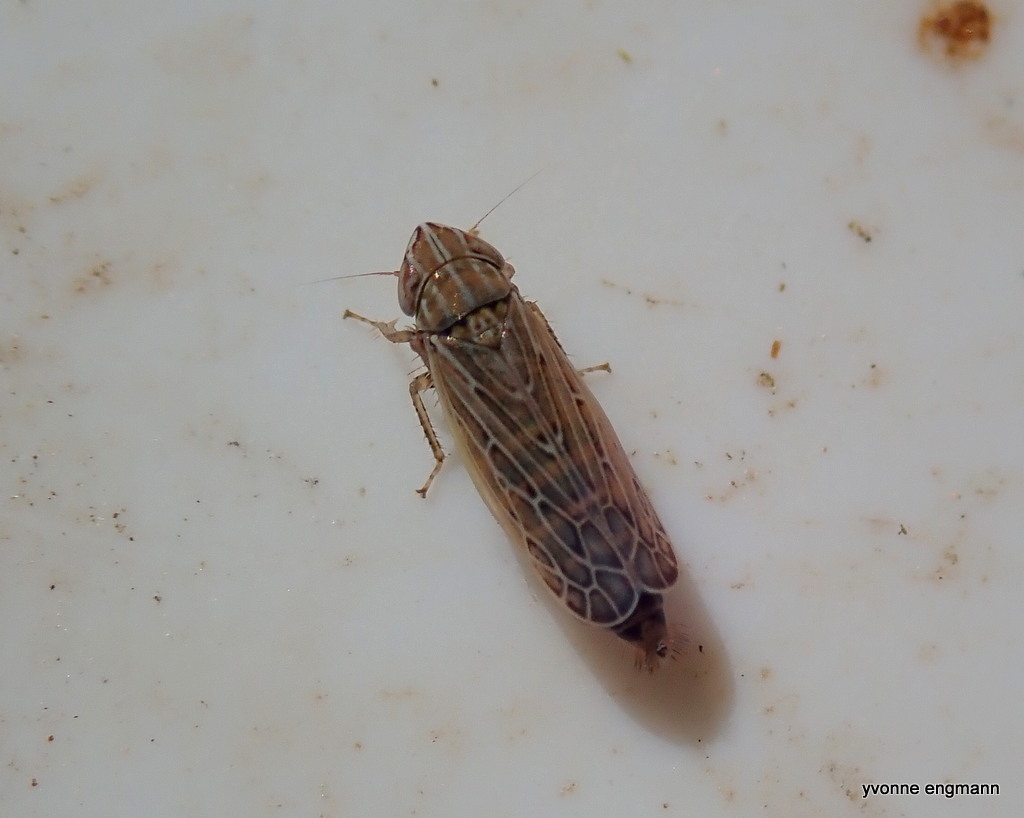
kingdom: Animalia
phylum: Arthropoda
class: Insecta
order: Hemiptera
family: Cicadellidae
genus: Arocephalus
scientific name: Arocephalus longiceps
